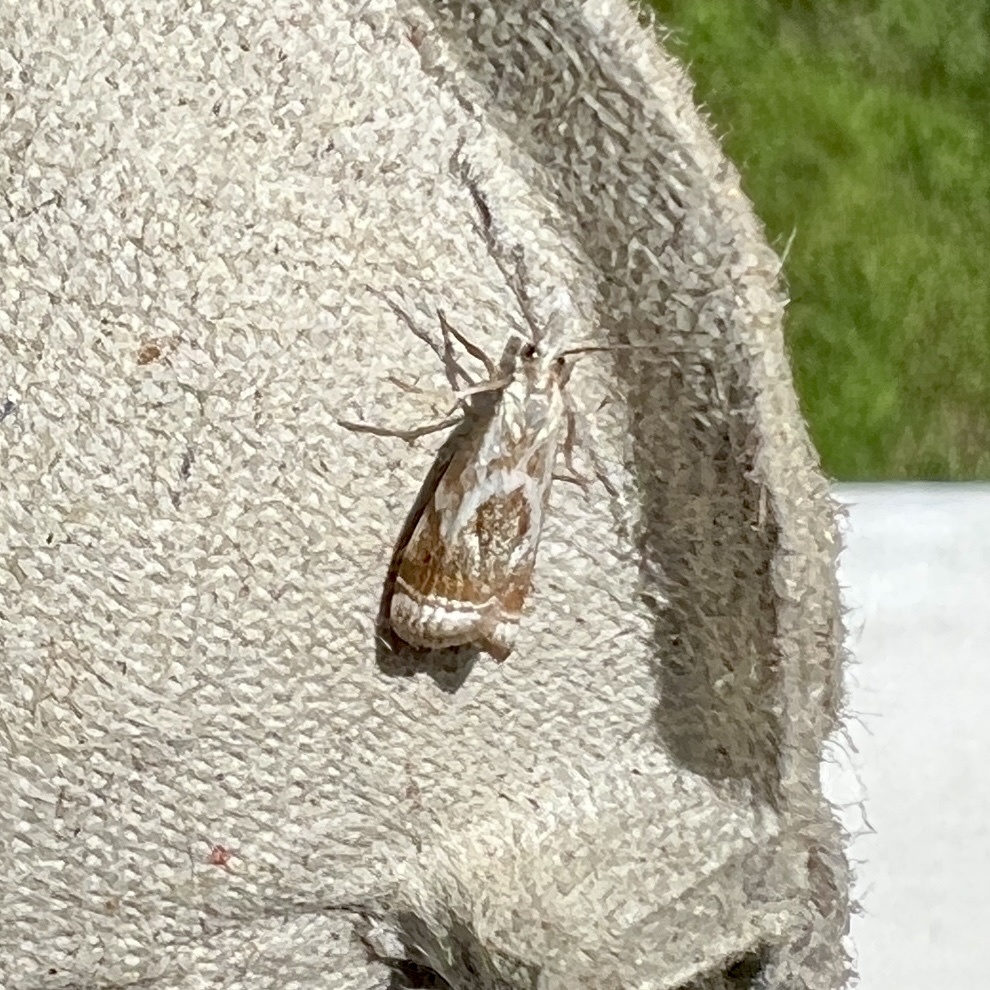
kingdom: Animalia
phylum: Arthropoda
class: Insecta
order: Lepidoptera
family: Crambidae
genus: Microcrambus
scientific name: Microcrambus elegans
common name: Elegant grass-veneer
